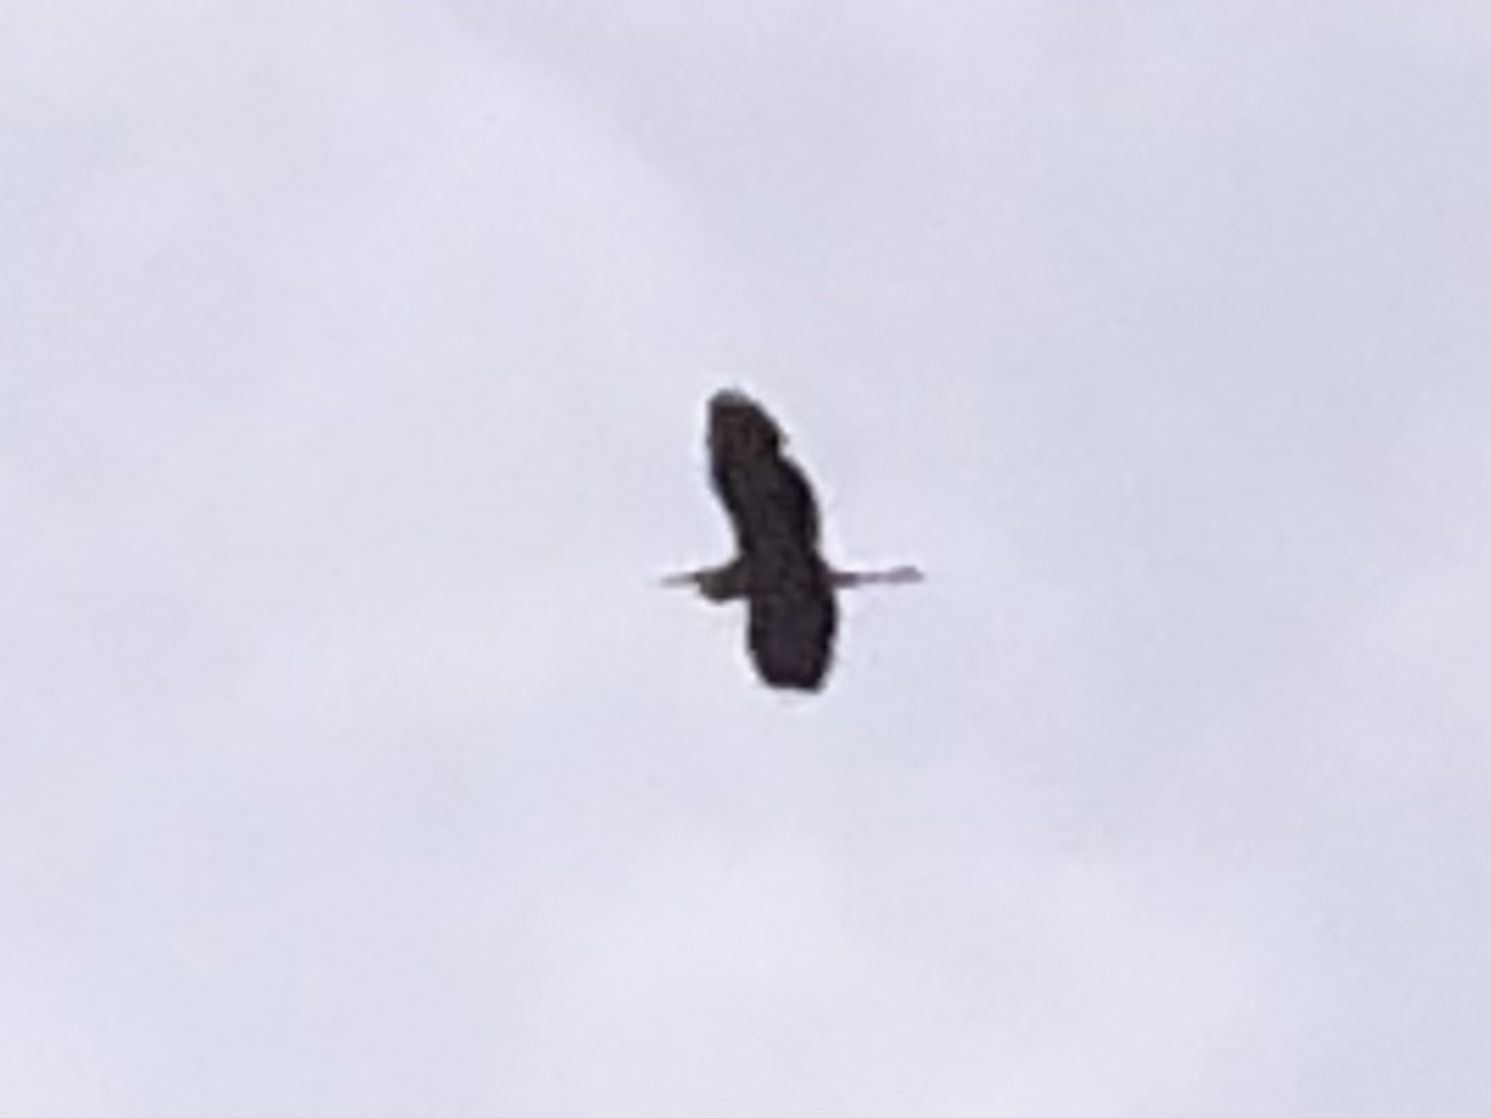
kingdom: Animalia
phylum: Chordata
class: Aves
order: Pelecaniformes
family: Ardeidae
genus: Ardea
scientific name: Ardea herodias
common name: Great blue heron
